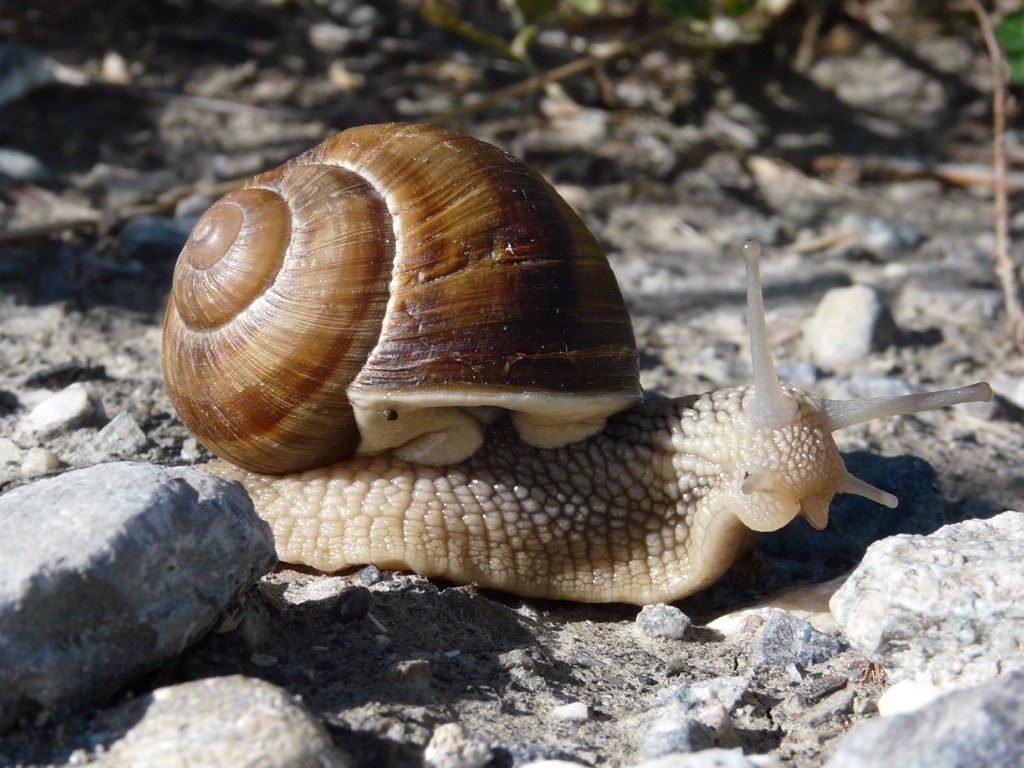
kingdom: Animalia
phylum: Mollusca
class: Gastropoda
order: Stylommatophora
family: Helicidae
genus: Helix
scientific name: Helix pomatia
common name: Roman snail
